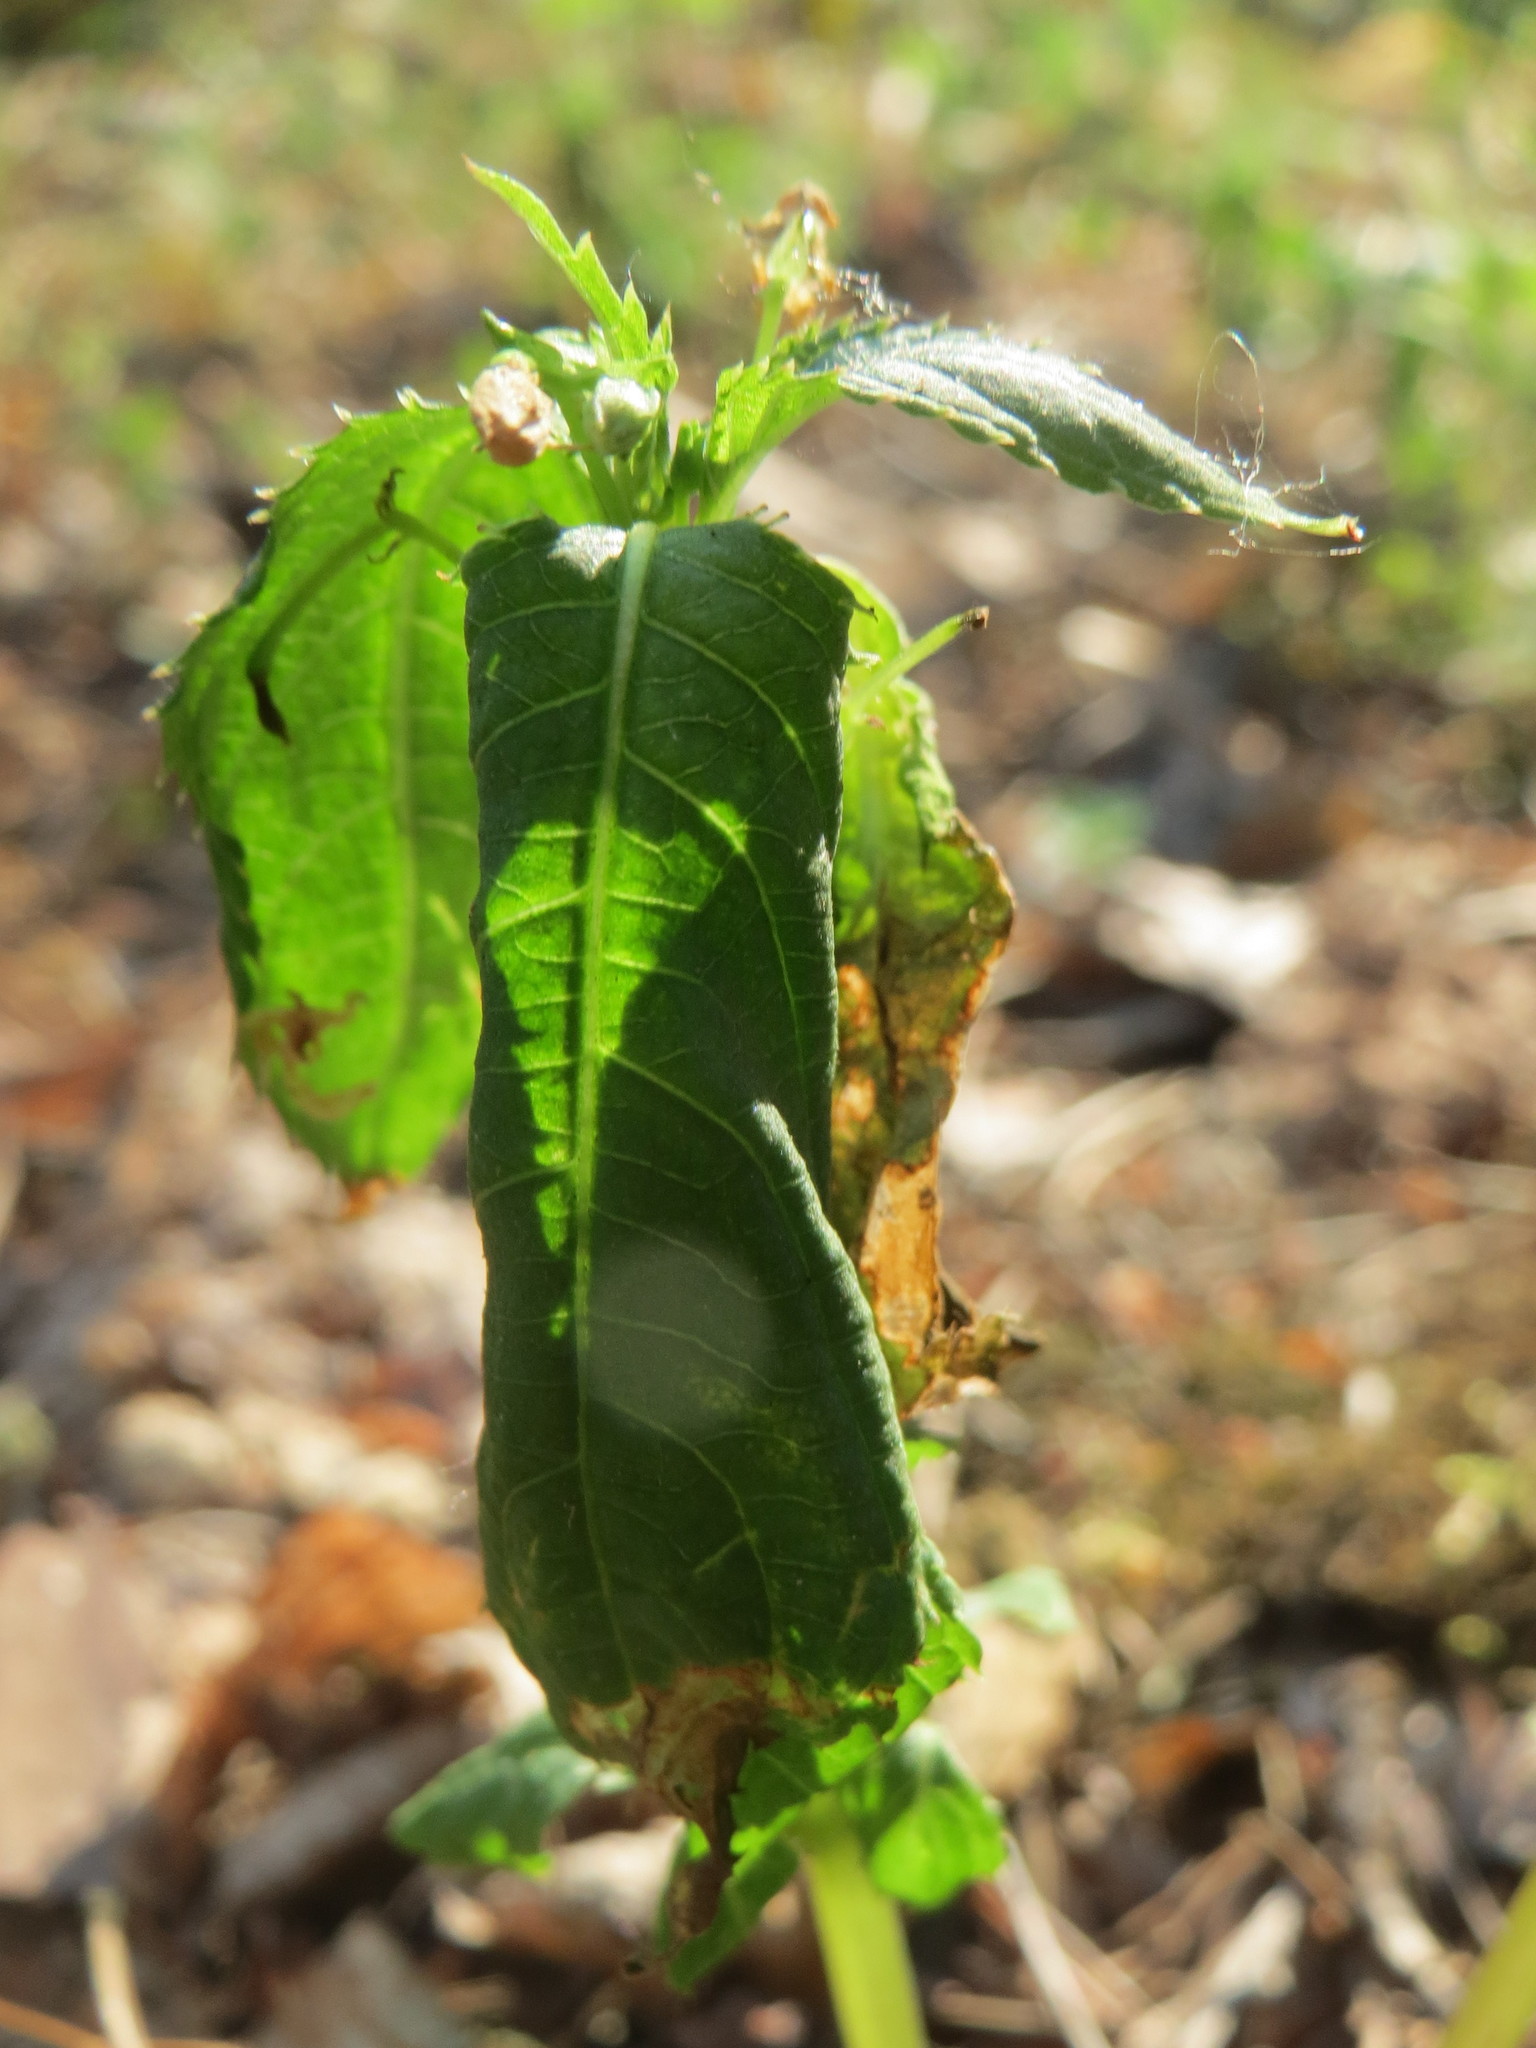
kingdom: Plantae
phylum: Tracheophyta
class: Magnoliopsida
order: Ericales
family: Balsaminaceae
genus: Impatiens
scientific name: Impatiens parviflora
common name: Small balsam
